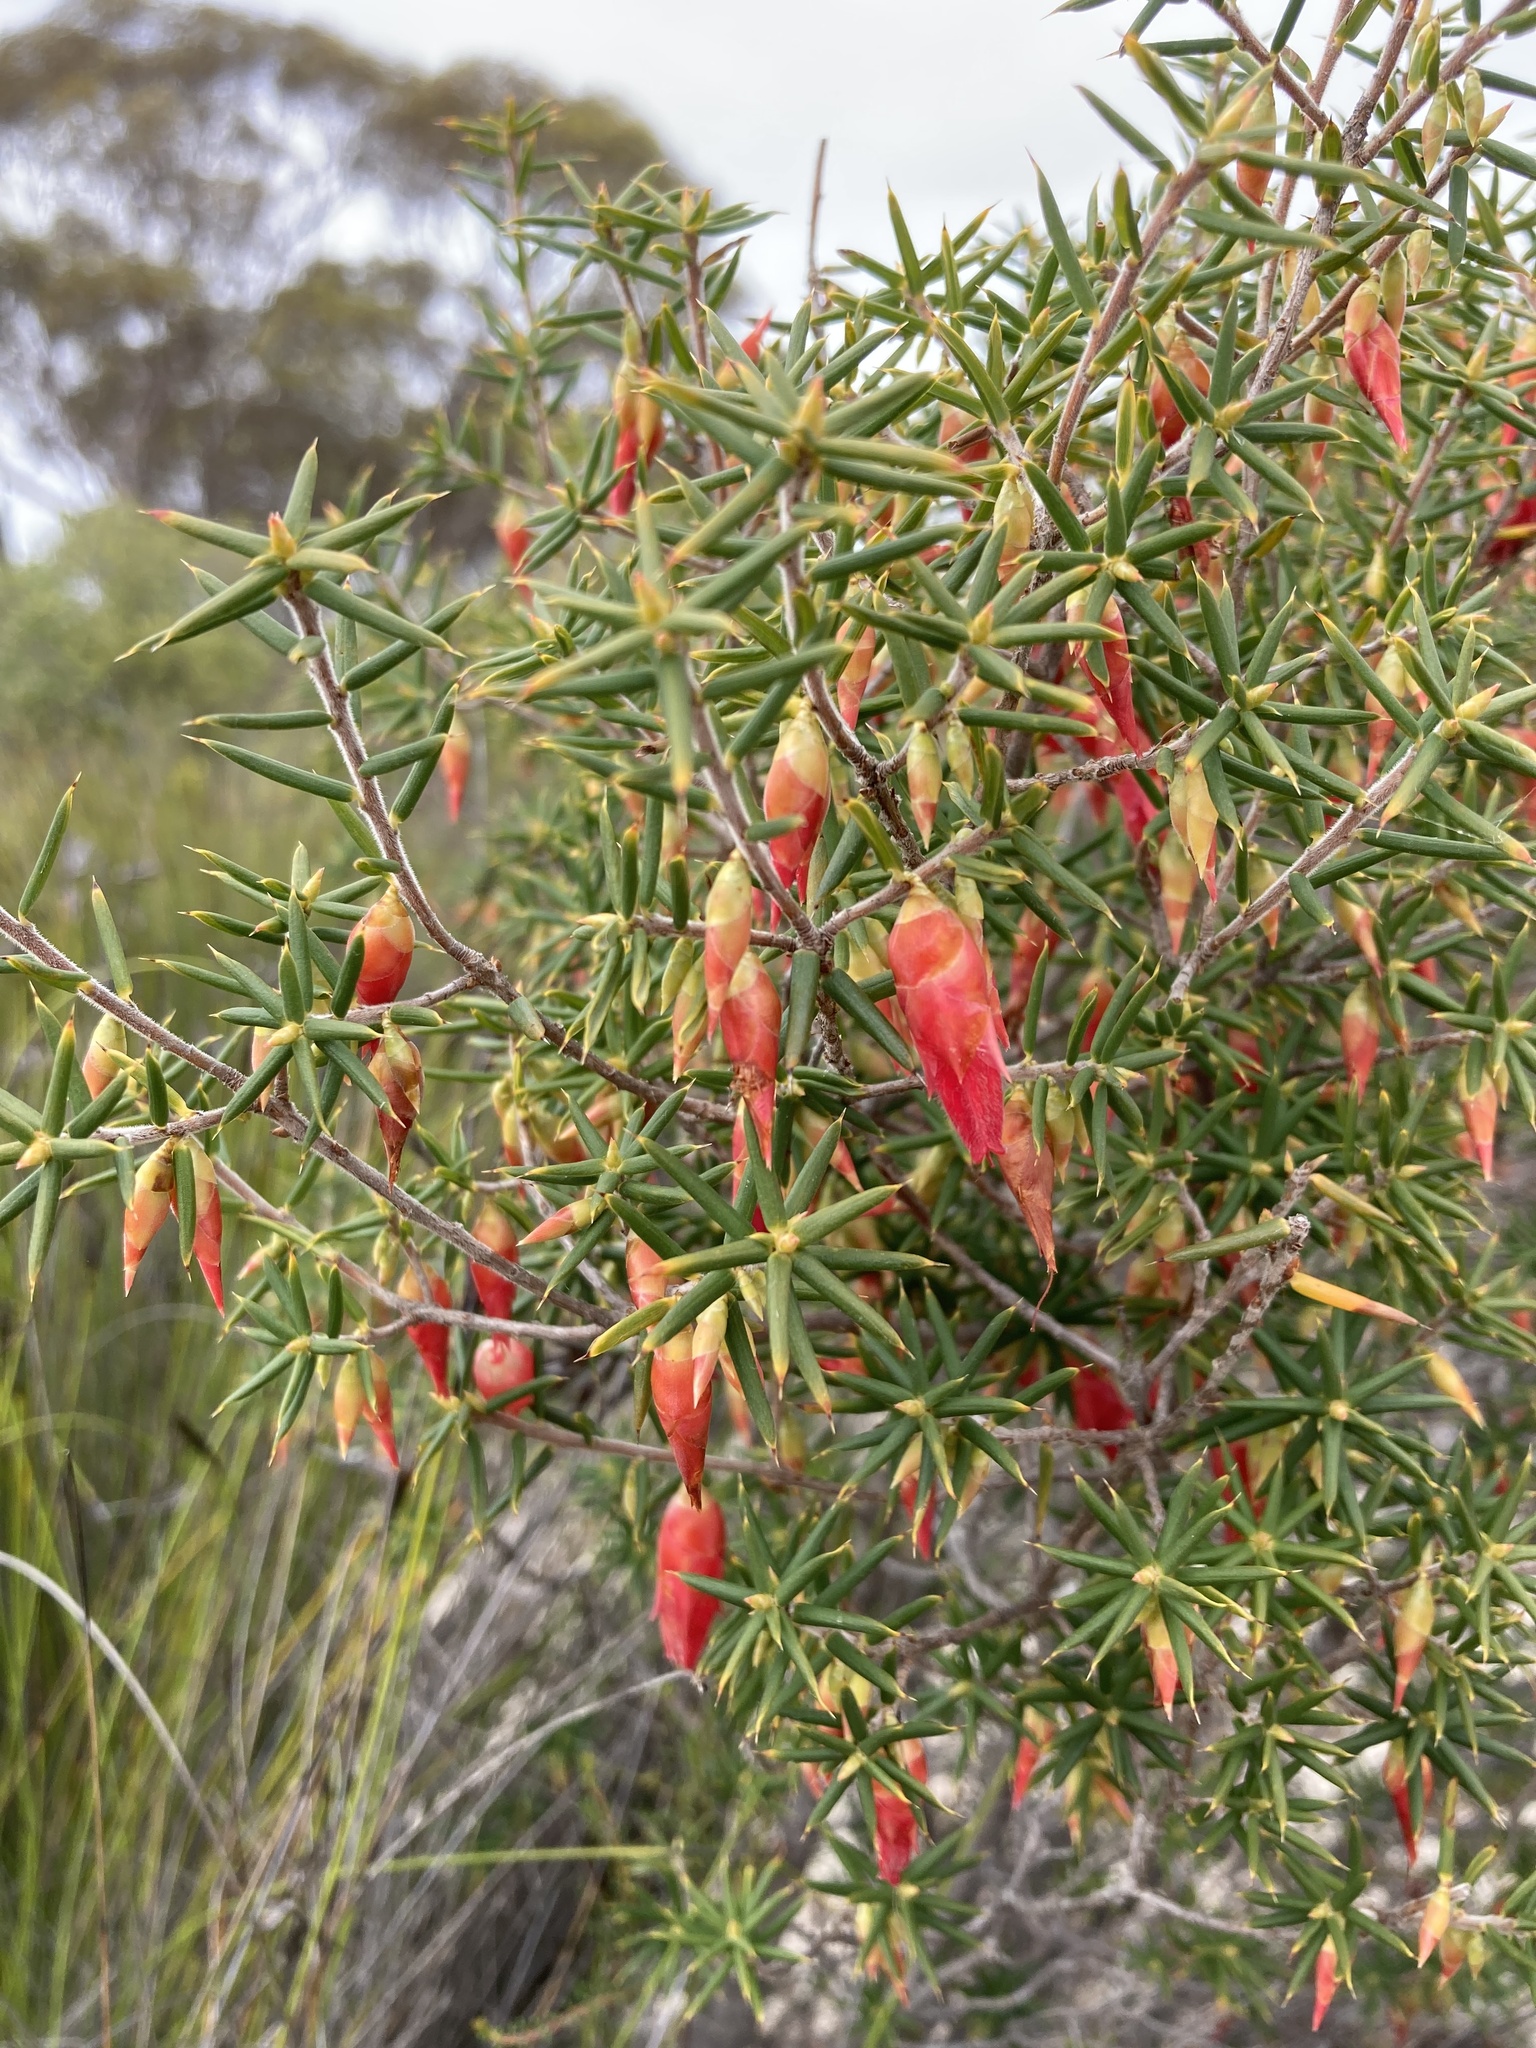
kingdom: Plantae
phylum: Tracheophyta
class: Magnoliopsida
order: Ericales
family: Ericaceae
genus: Stenanthera
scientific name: Stenanthera conostephioides
